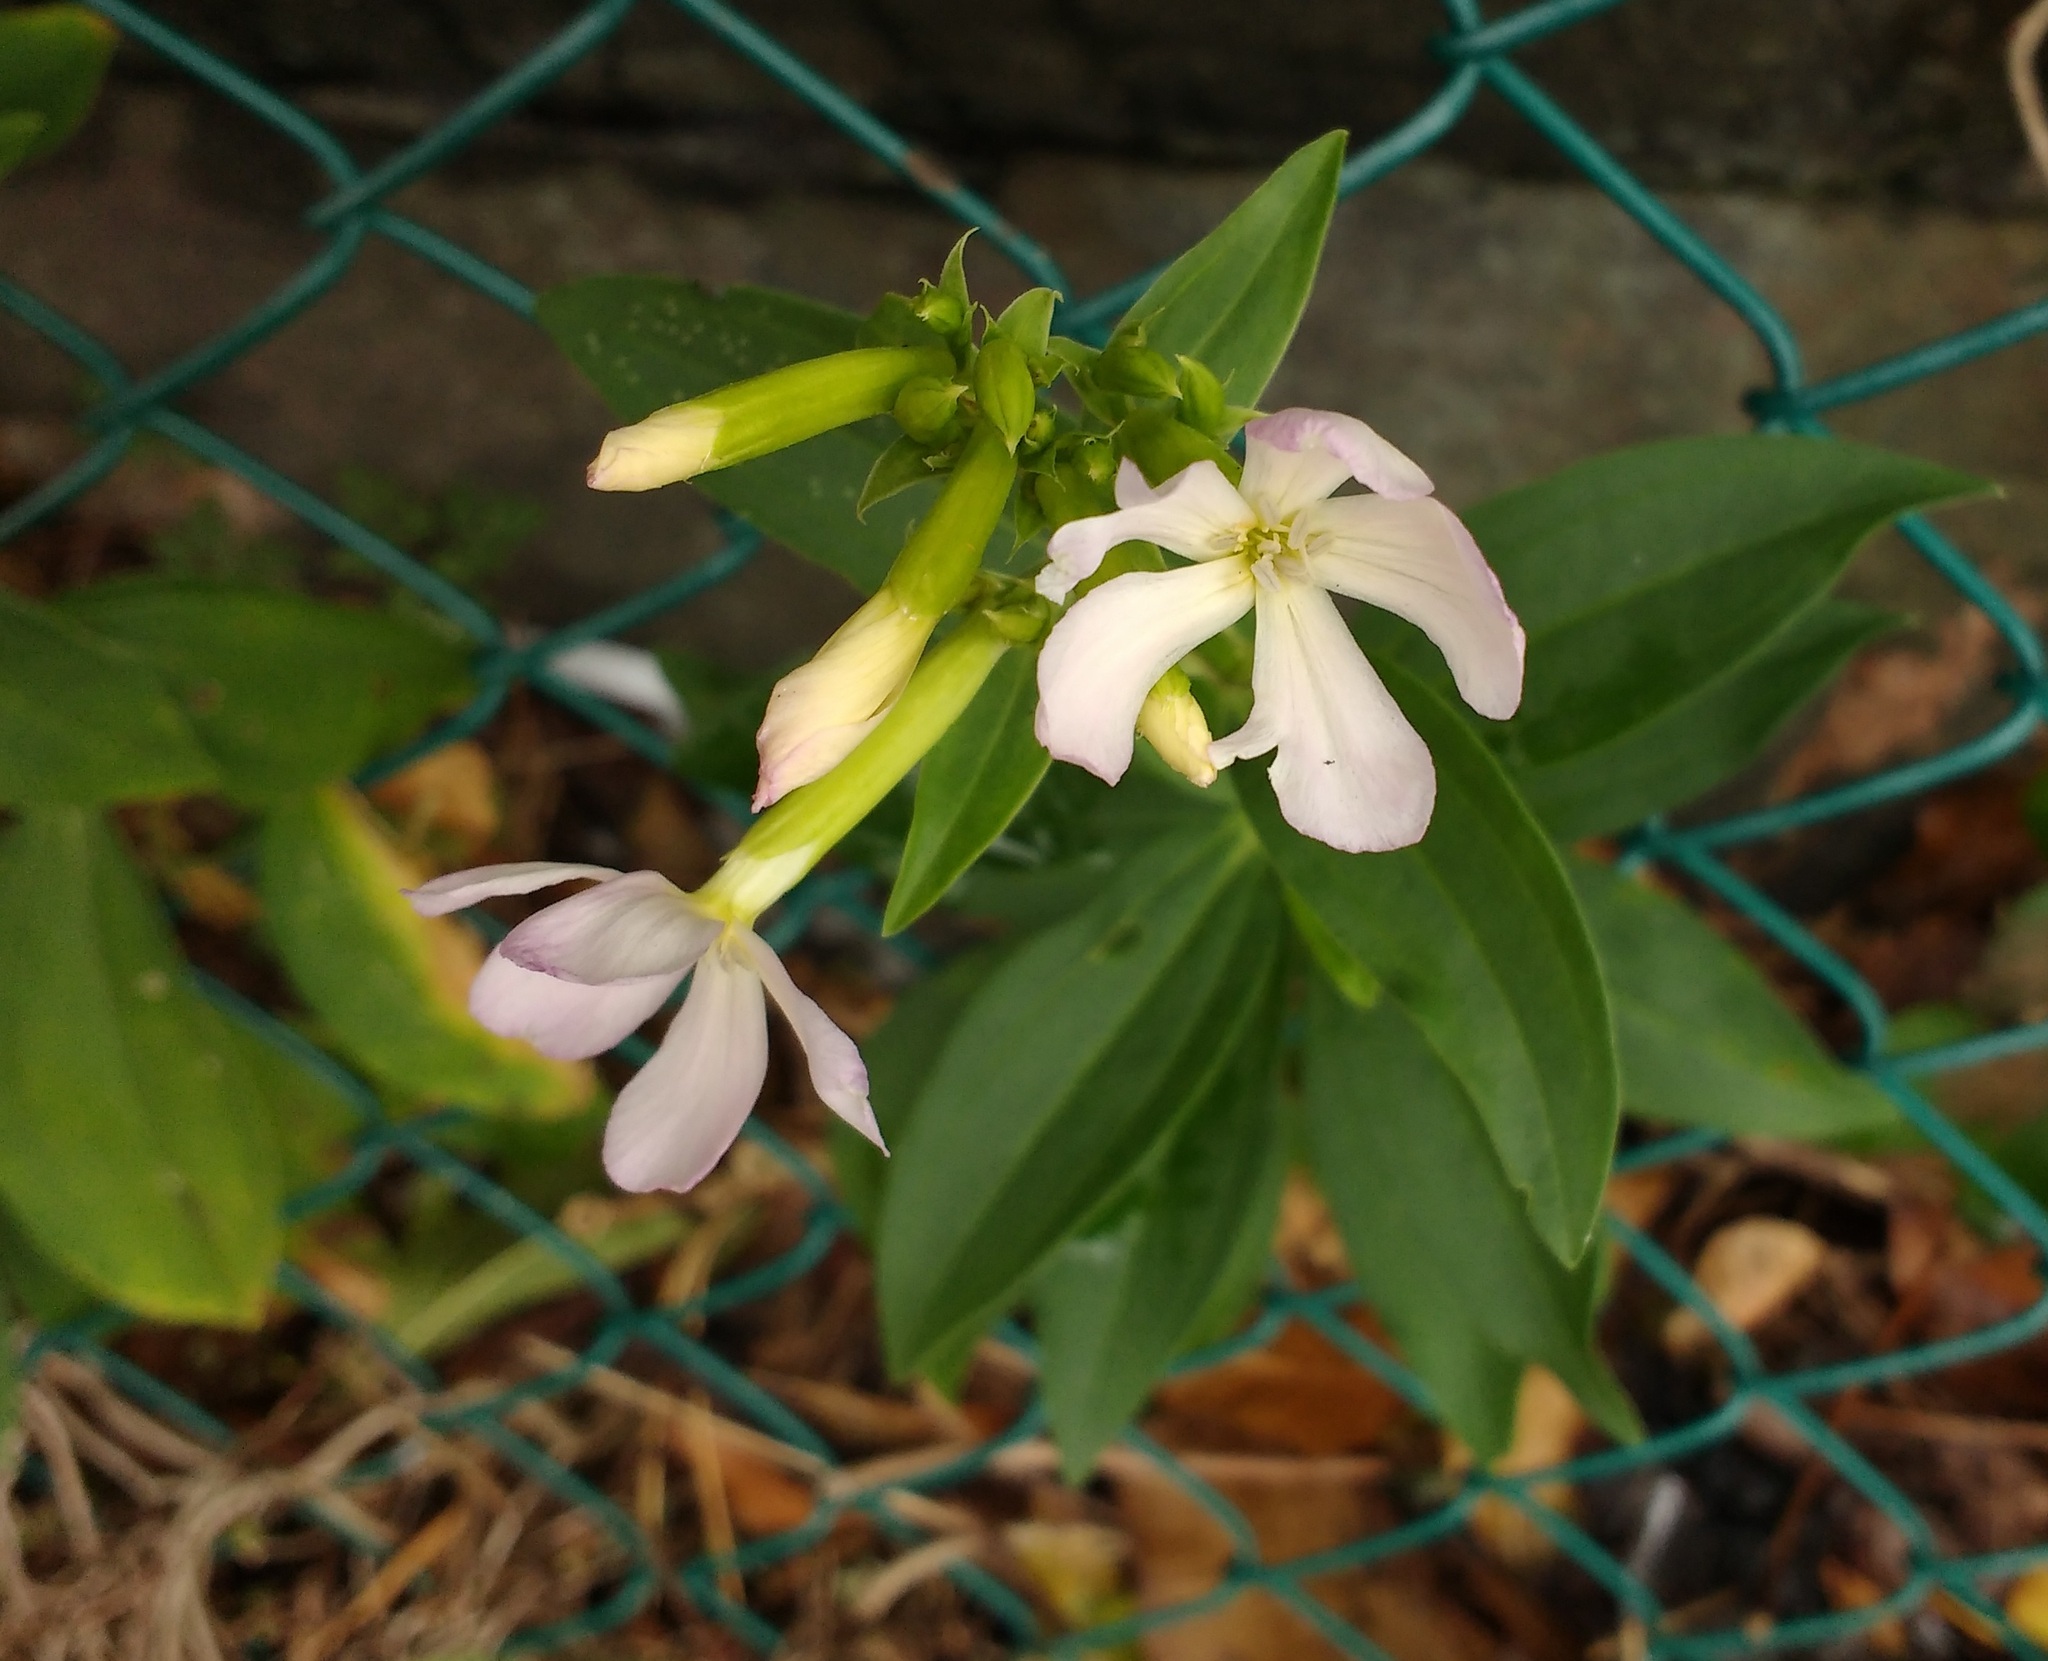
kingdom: Plantae
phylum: Tracheophyta
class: Magnoliopsida
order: Caryophyllales
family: Caryophyllaceae
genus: Saponaria
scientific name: Saponaria officinalis
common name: Soapwort
